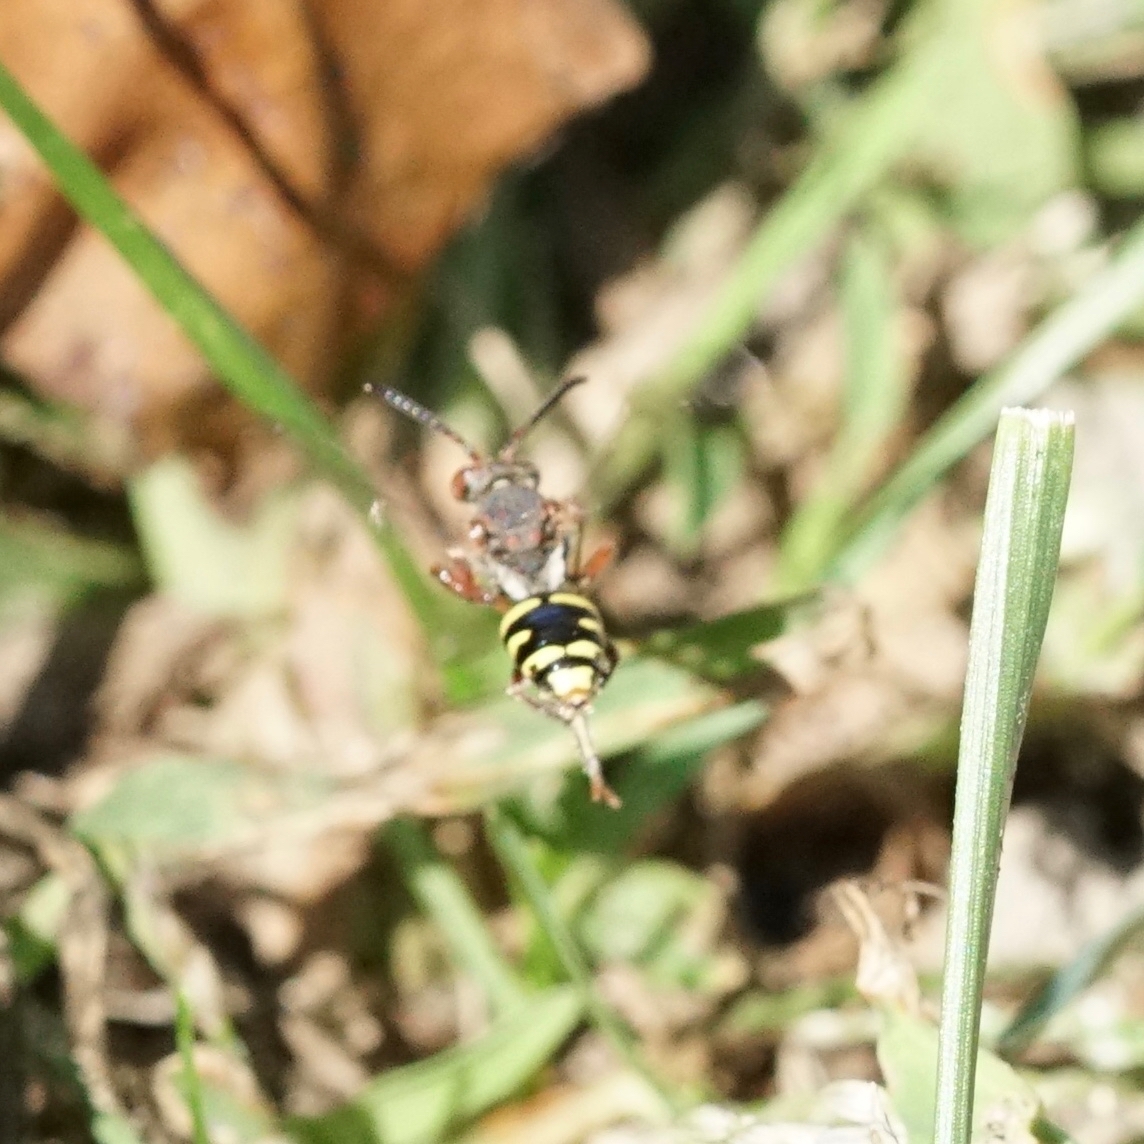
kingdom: Animalia
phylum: Arthropoda
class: Insecta
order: Hymenoptera
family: Apidae
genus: Nomada
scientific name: Nomada
